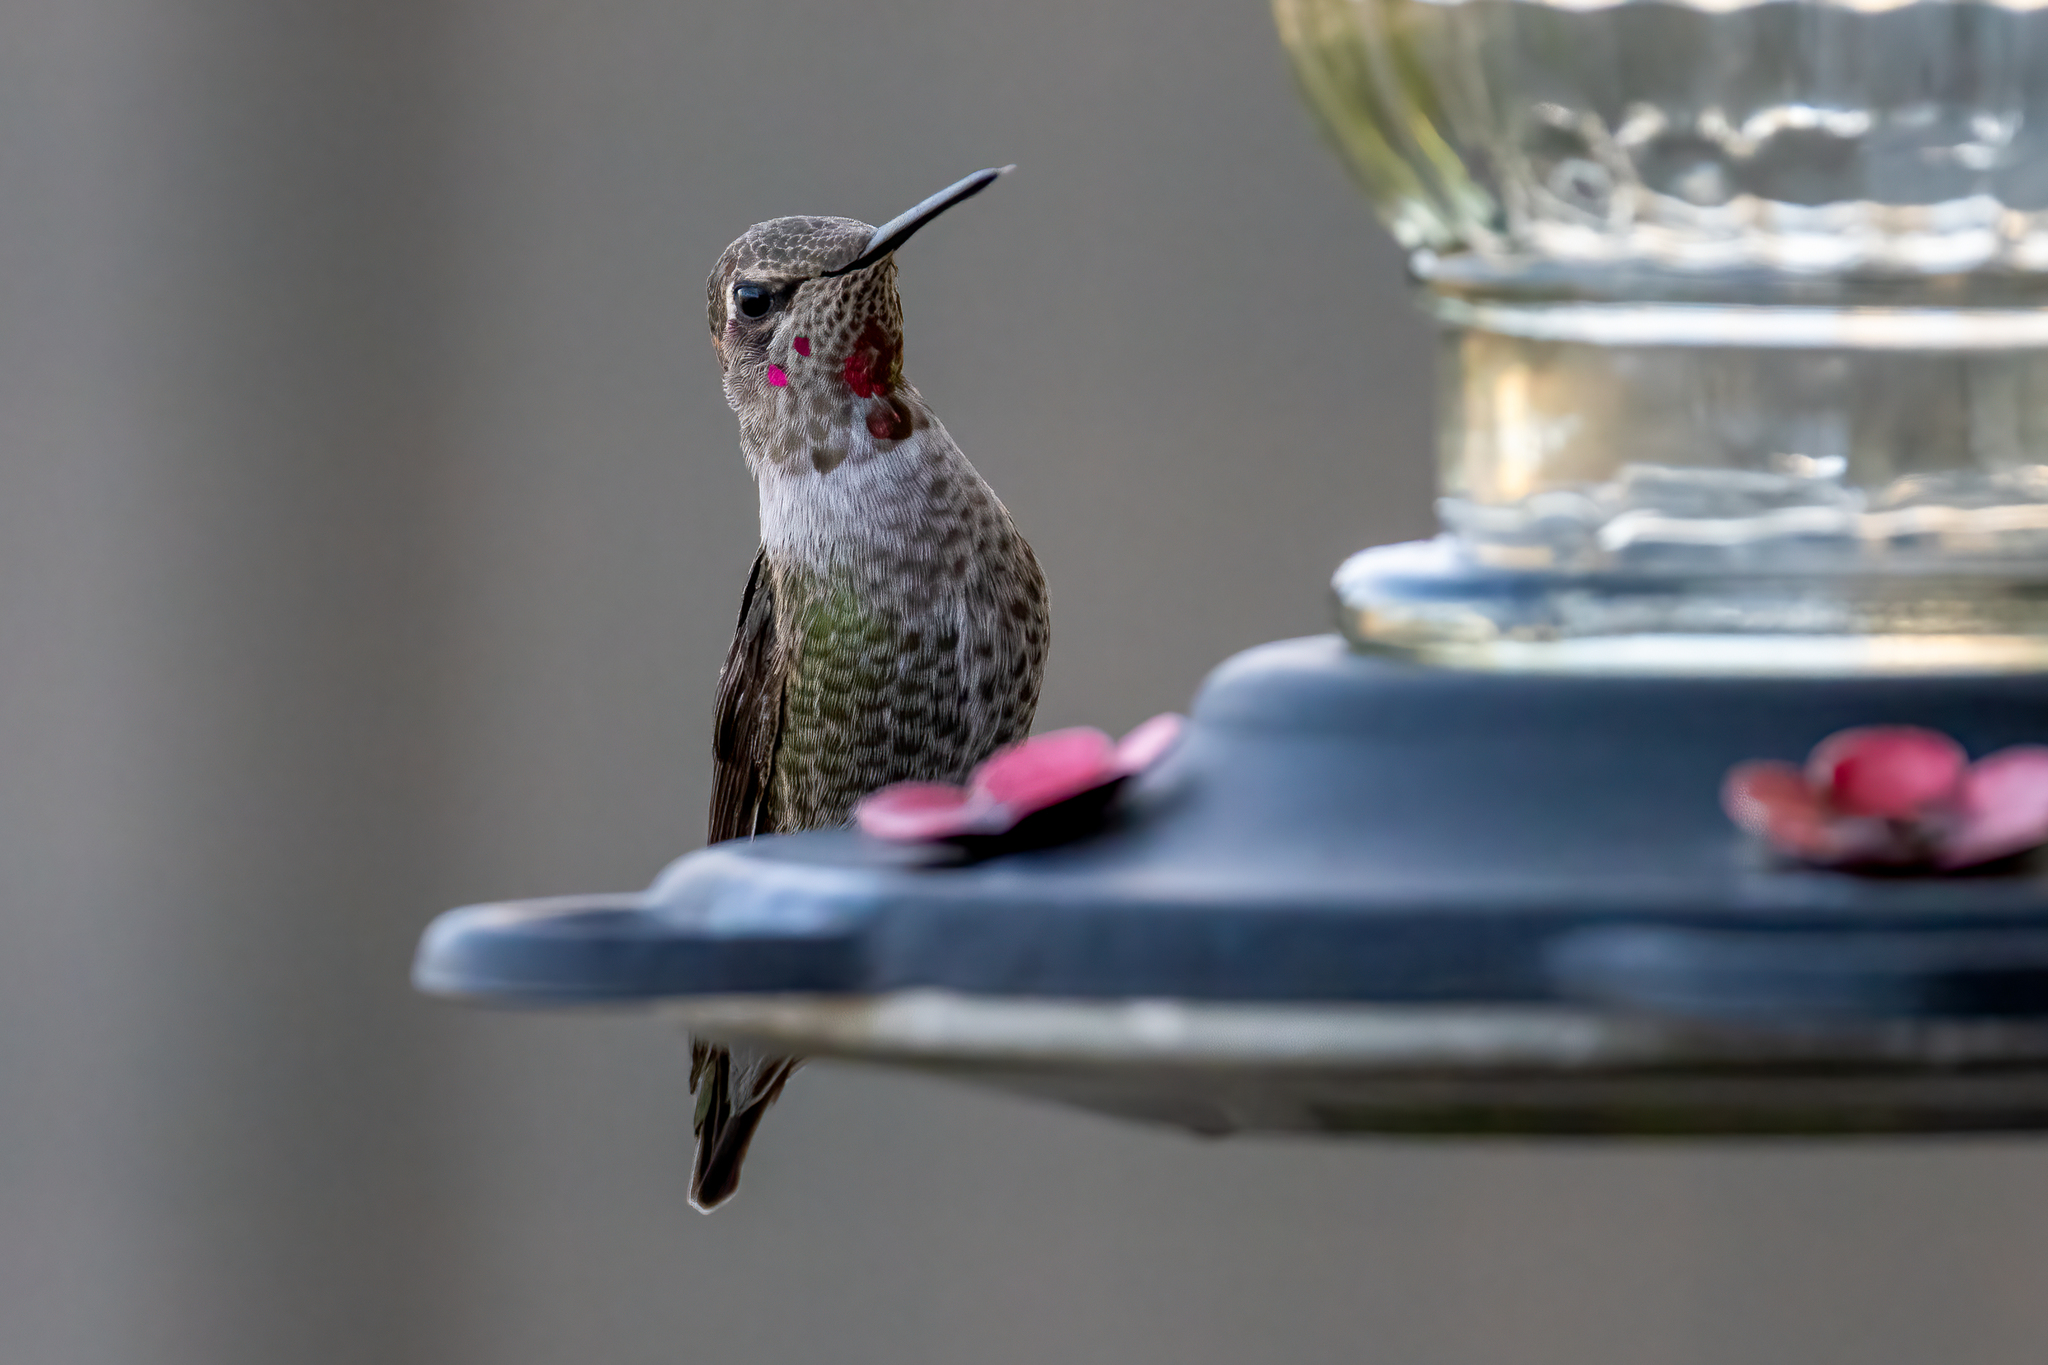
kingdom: Animalia
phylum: Chordata
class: Aves
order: Apodiformes
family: Trochilidae
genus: Calypte
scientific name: Calypte anna
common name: Anna's hummingbird
